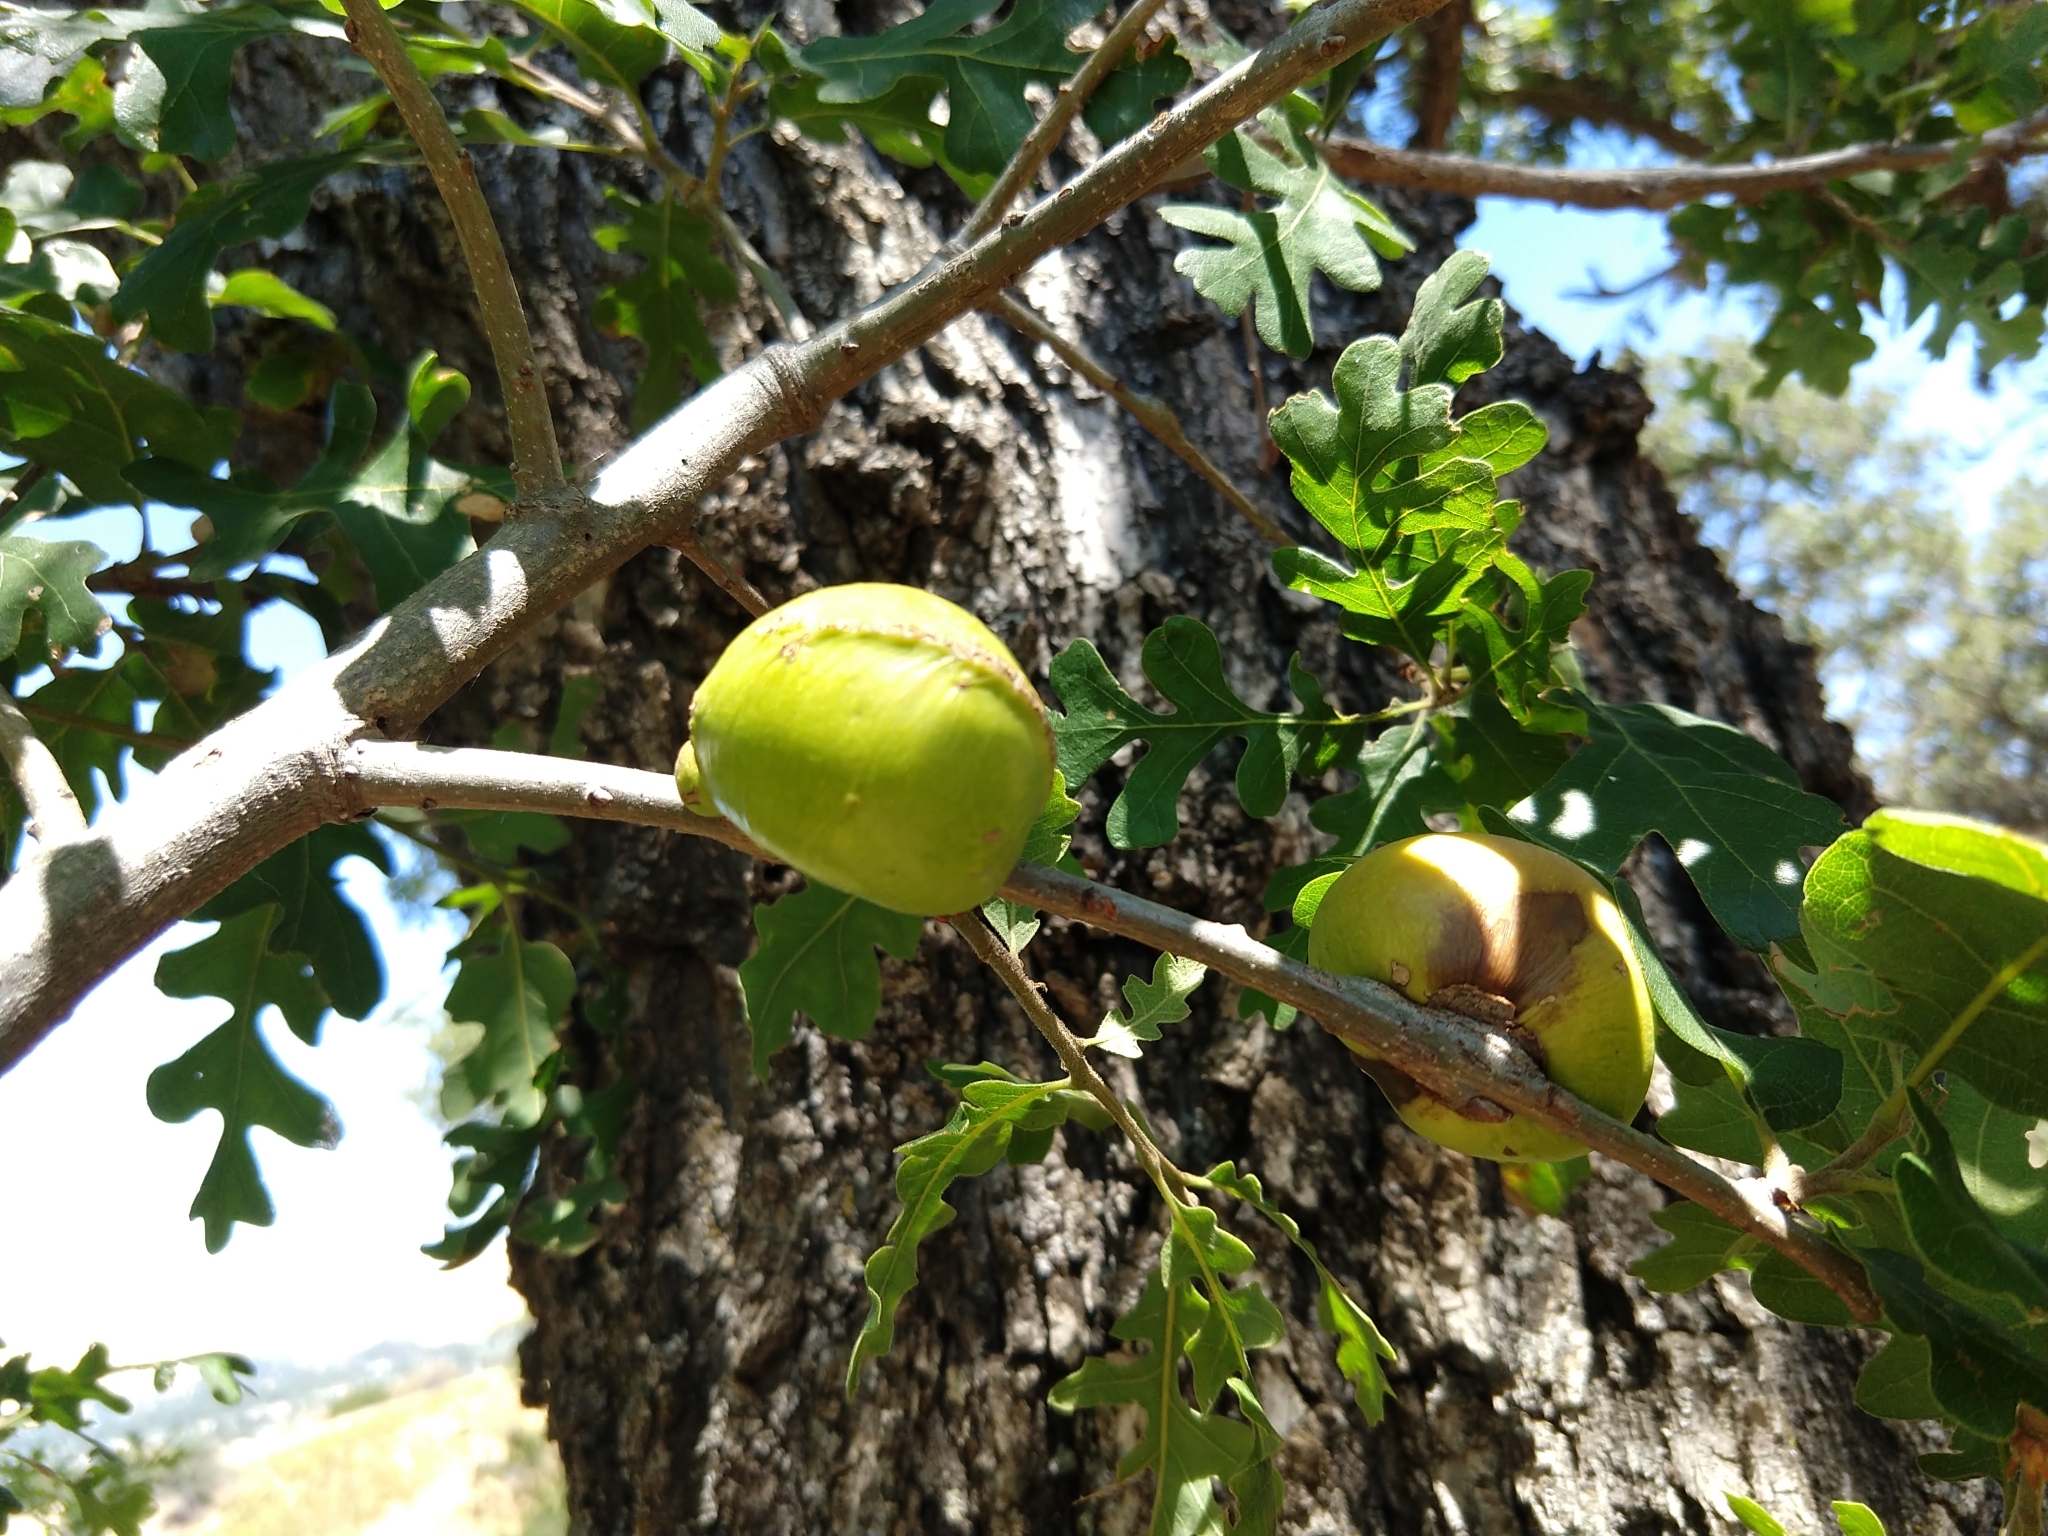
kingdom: Animalia
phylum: Arthropoda
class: Insecta
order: Hymenoptera
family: Cynipidae
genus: Andricus
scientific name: Andricus quercuscalifornicus
